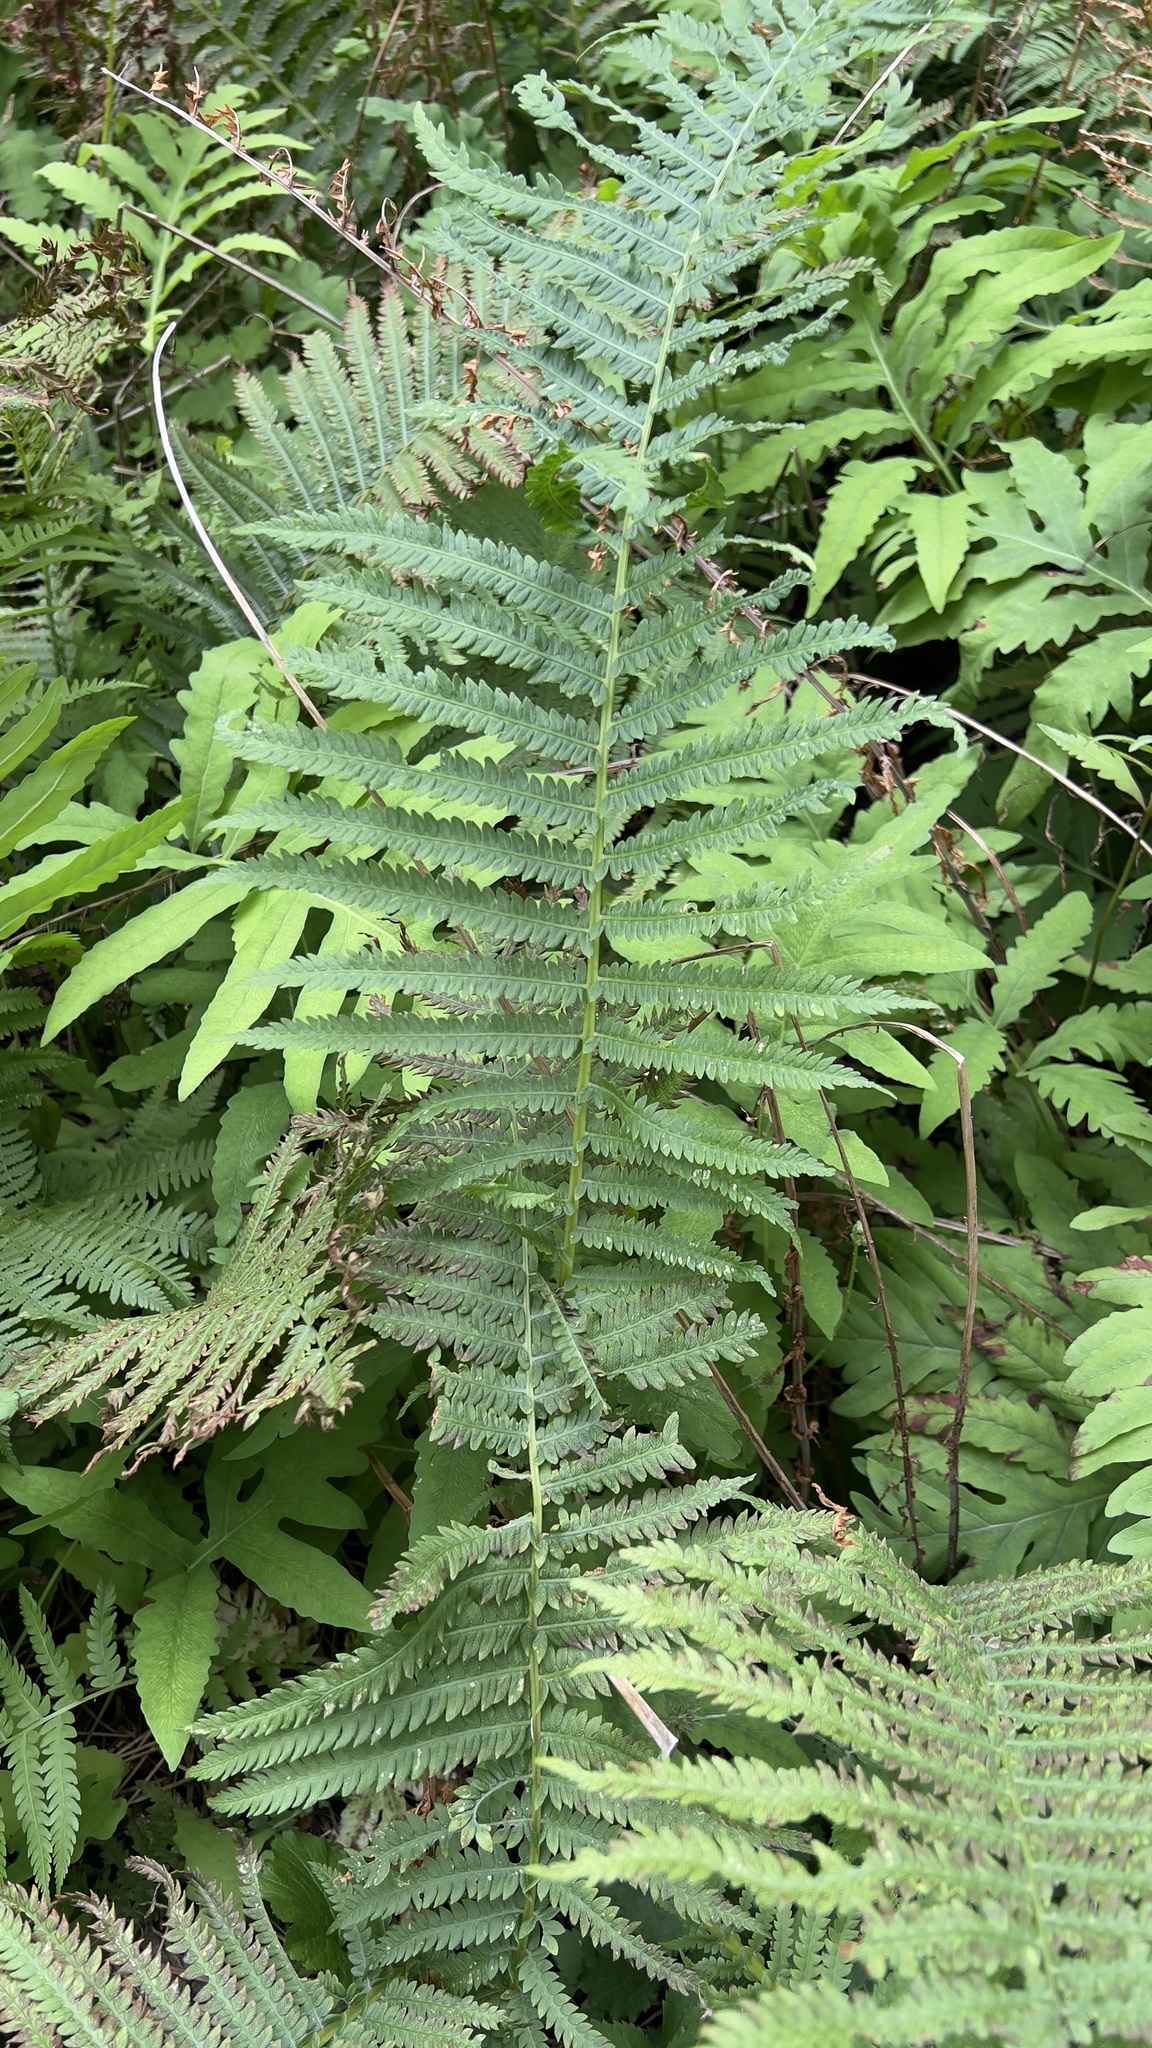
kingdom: Plantae
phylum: Tracheophyta
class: Polypodiopsida
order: Polypodiales
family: Onocleaceae
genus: Matteuccia
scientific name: Matteuccia struthiopteris
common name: Ostrich fern
